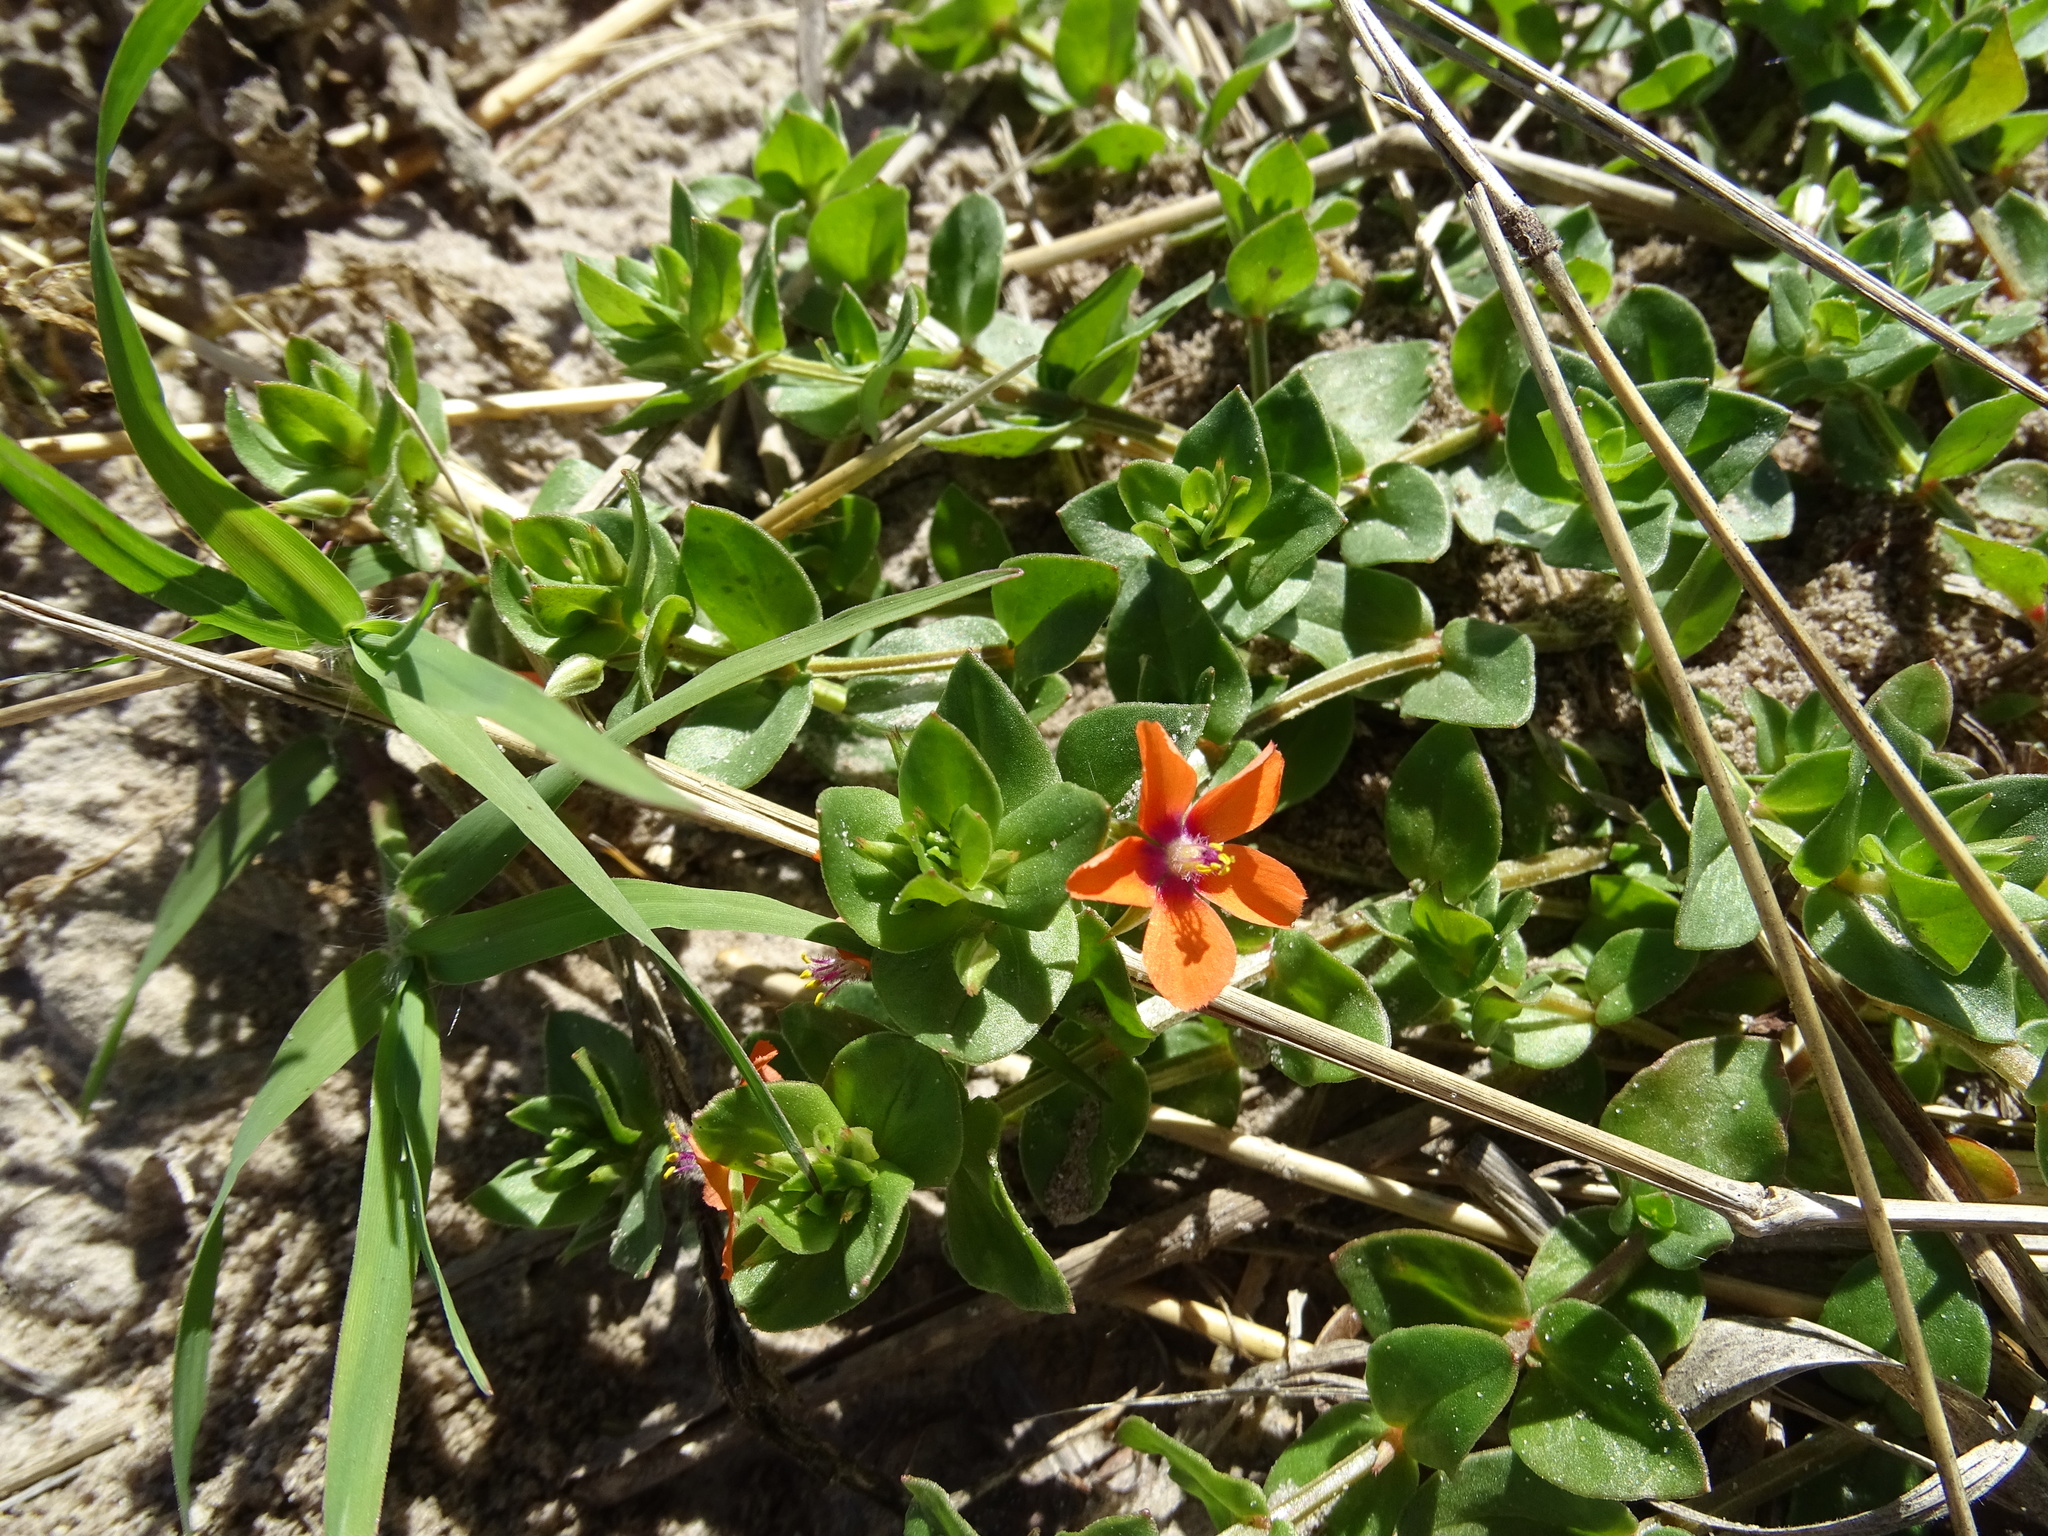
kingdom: Plantae
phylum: Tracheophyta
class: Magnoliopsida
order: Ericales
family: Primulaceae
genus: Lysimachia
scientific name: Lysimachia arvensis
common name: Scarlet pimpernel
